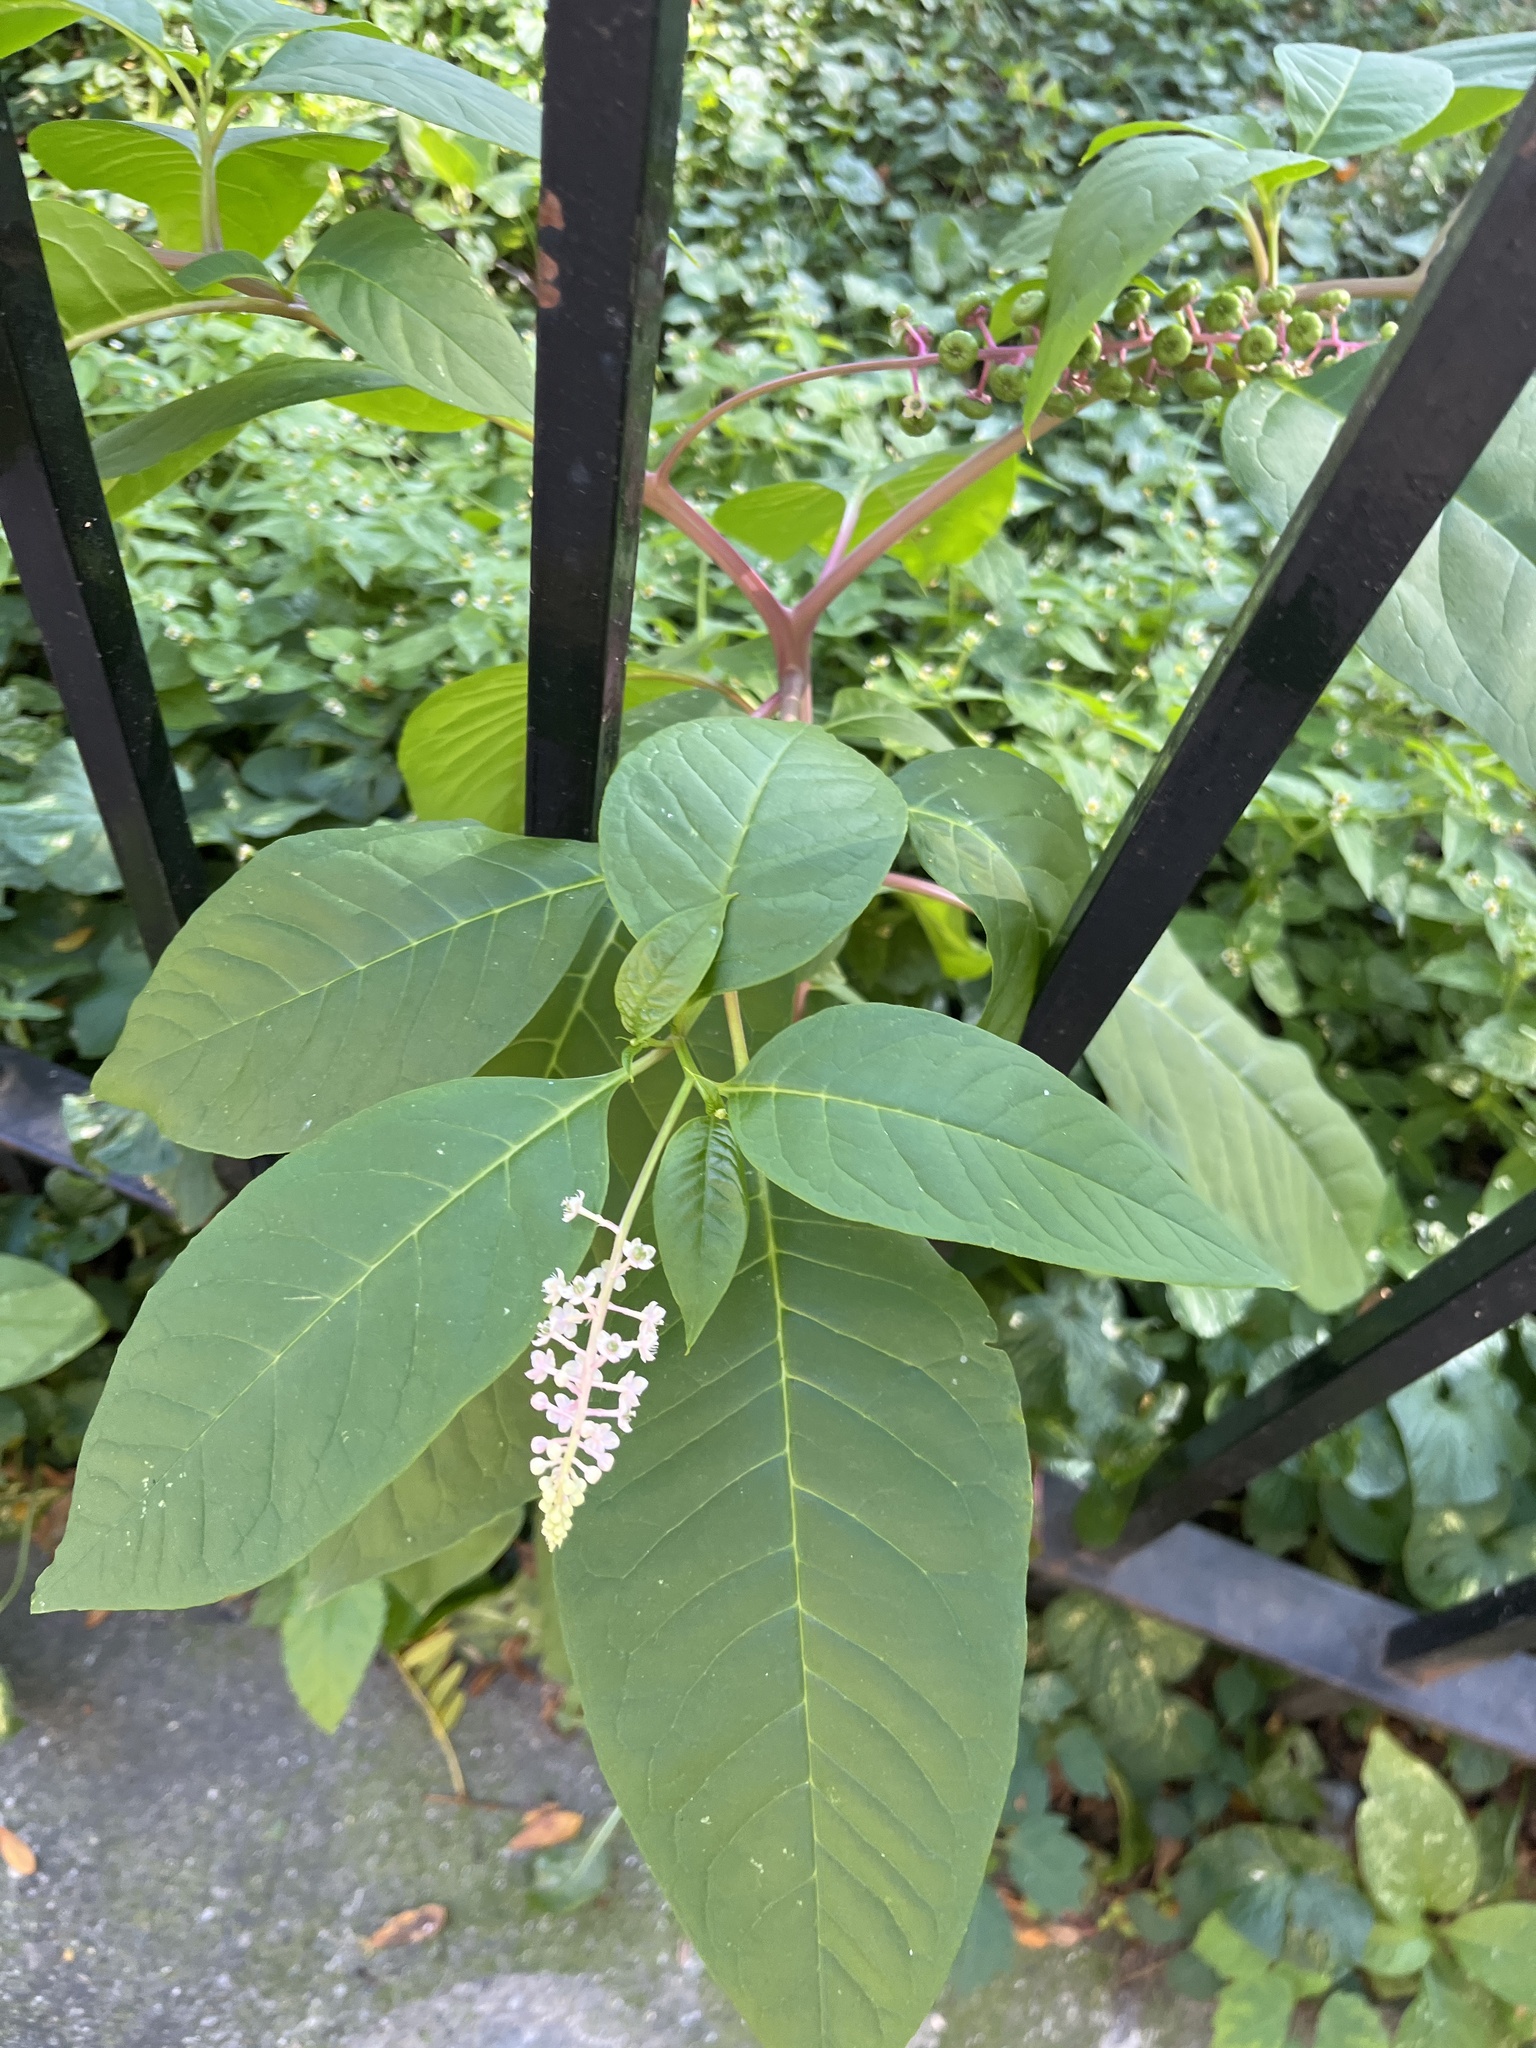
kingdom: Plantae
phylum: Tracheophyta
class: Magnoliopsida
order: Caryophyllales
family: Phytolaccaceae
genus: Phytolacca
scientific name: Phytolacca americana
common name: American pokeweed
